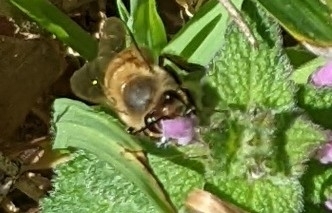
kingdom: Animalia
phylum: Arthropoda
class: Insecta
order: Hymenoptera
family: Apidae
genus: Apis
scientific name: Apis mellifera
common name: Honey bee
